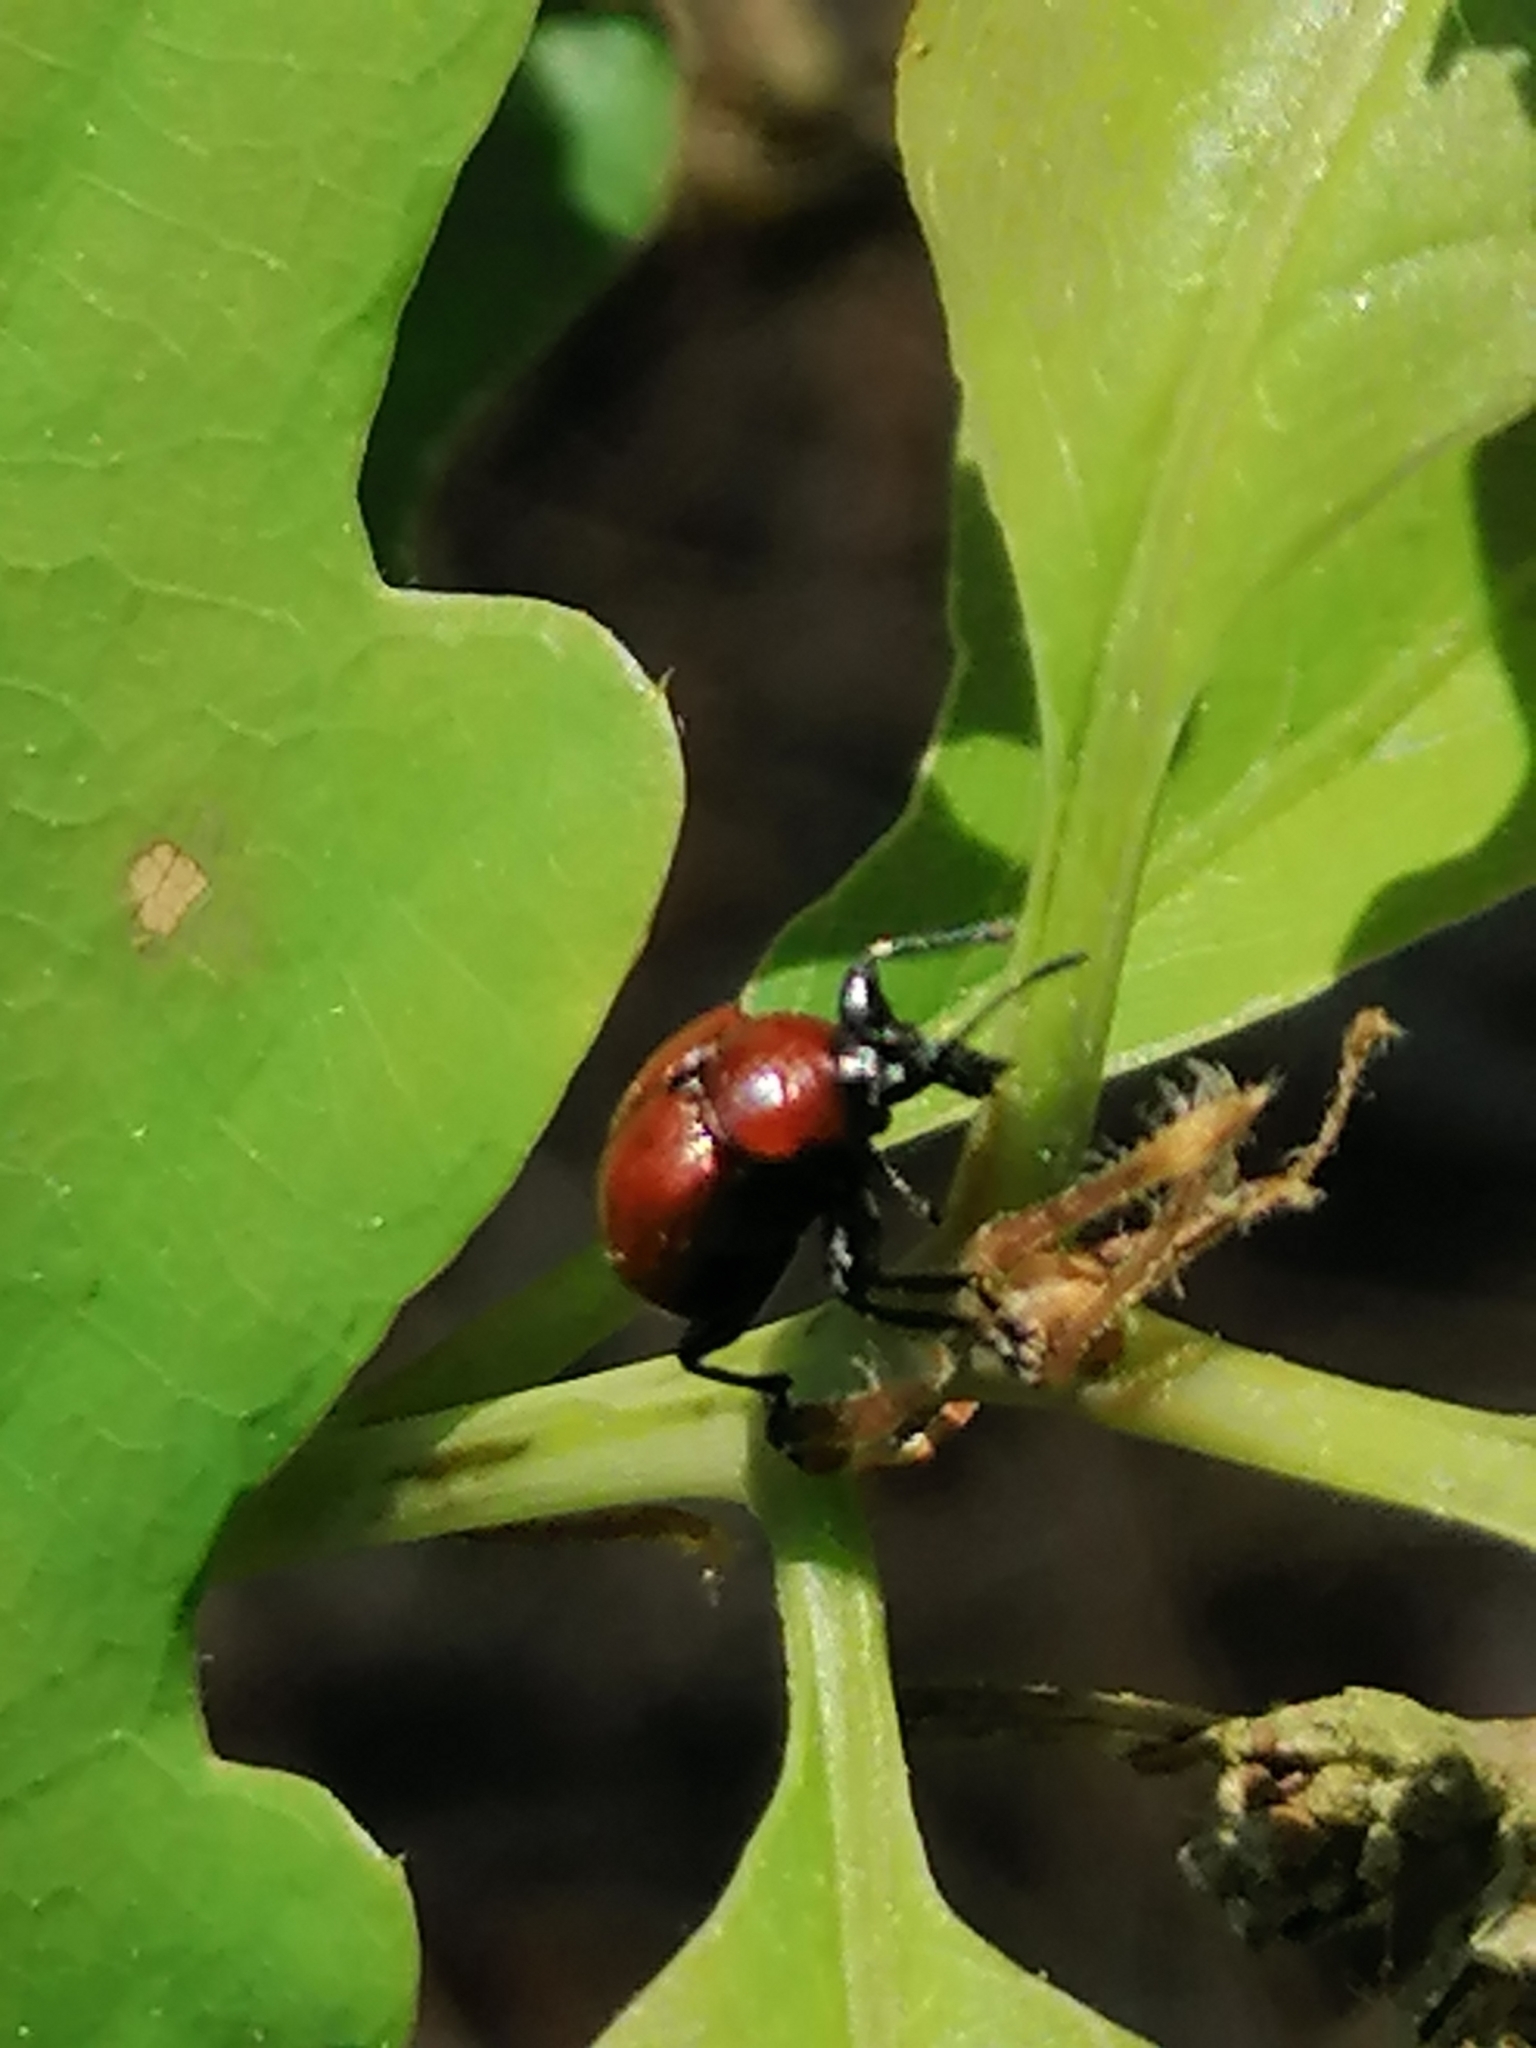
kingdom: Animalia
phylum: Arthropoda
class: Insecta
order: Coleoptera
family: Attelabidae
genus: Attelabus
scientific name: Attelabus nitens
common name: Oak leaf-roller
